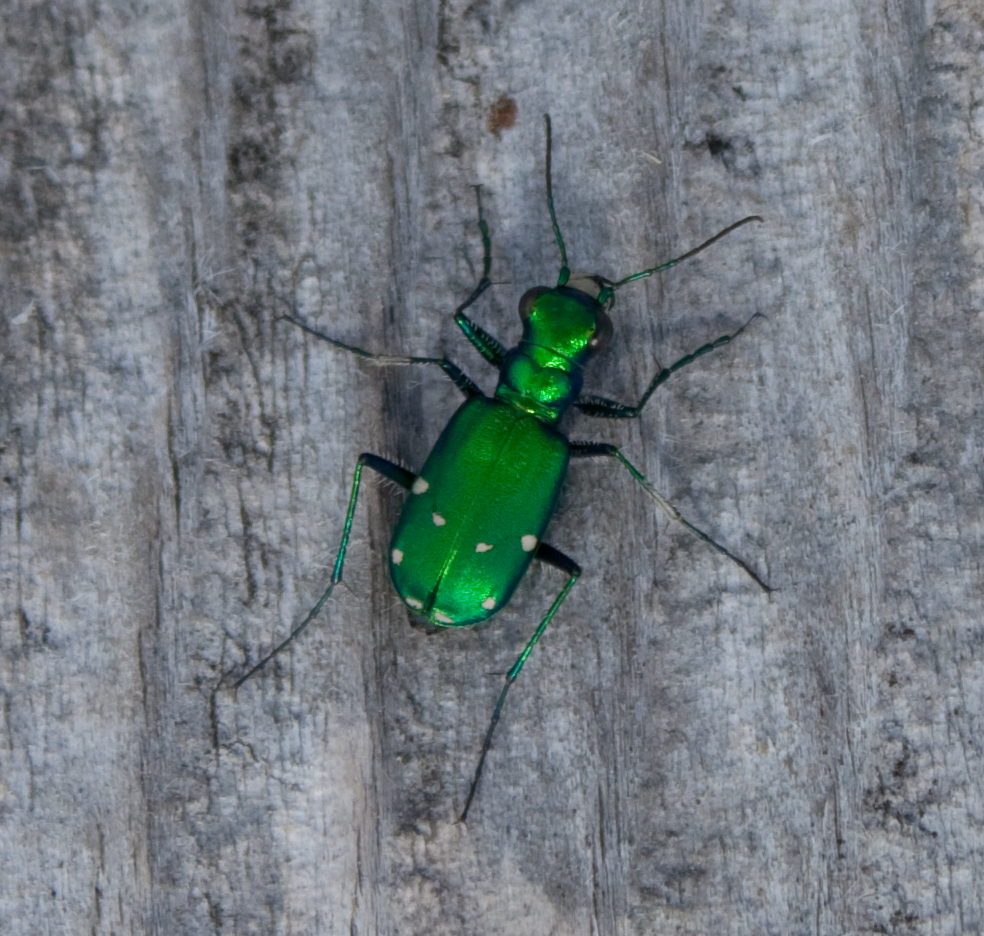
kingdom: Animalia
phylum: Arthropoda
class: Insecta
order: Coleoptera
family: Carabidae
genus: Cicindela
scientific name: Cicindela sexguttata
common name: Six-spotted tiger beetle
